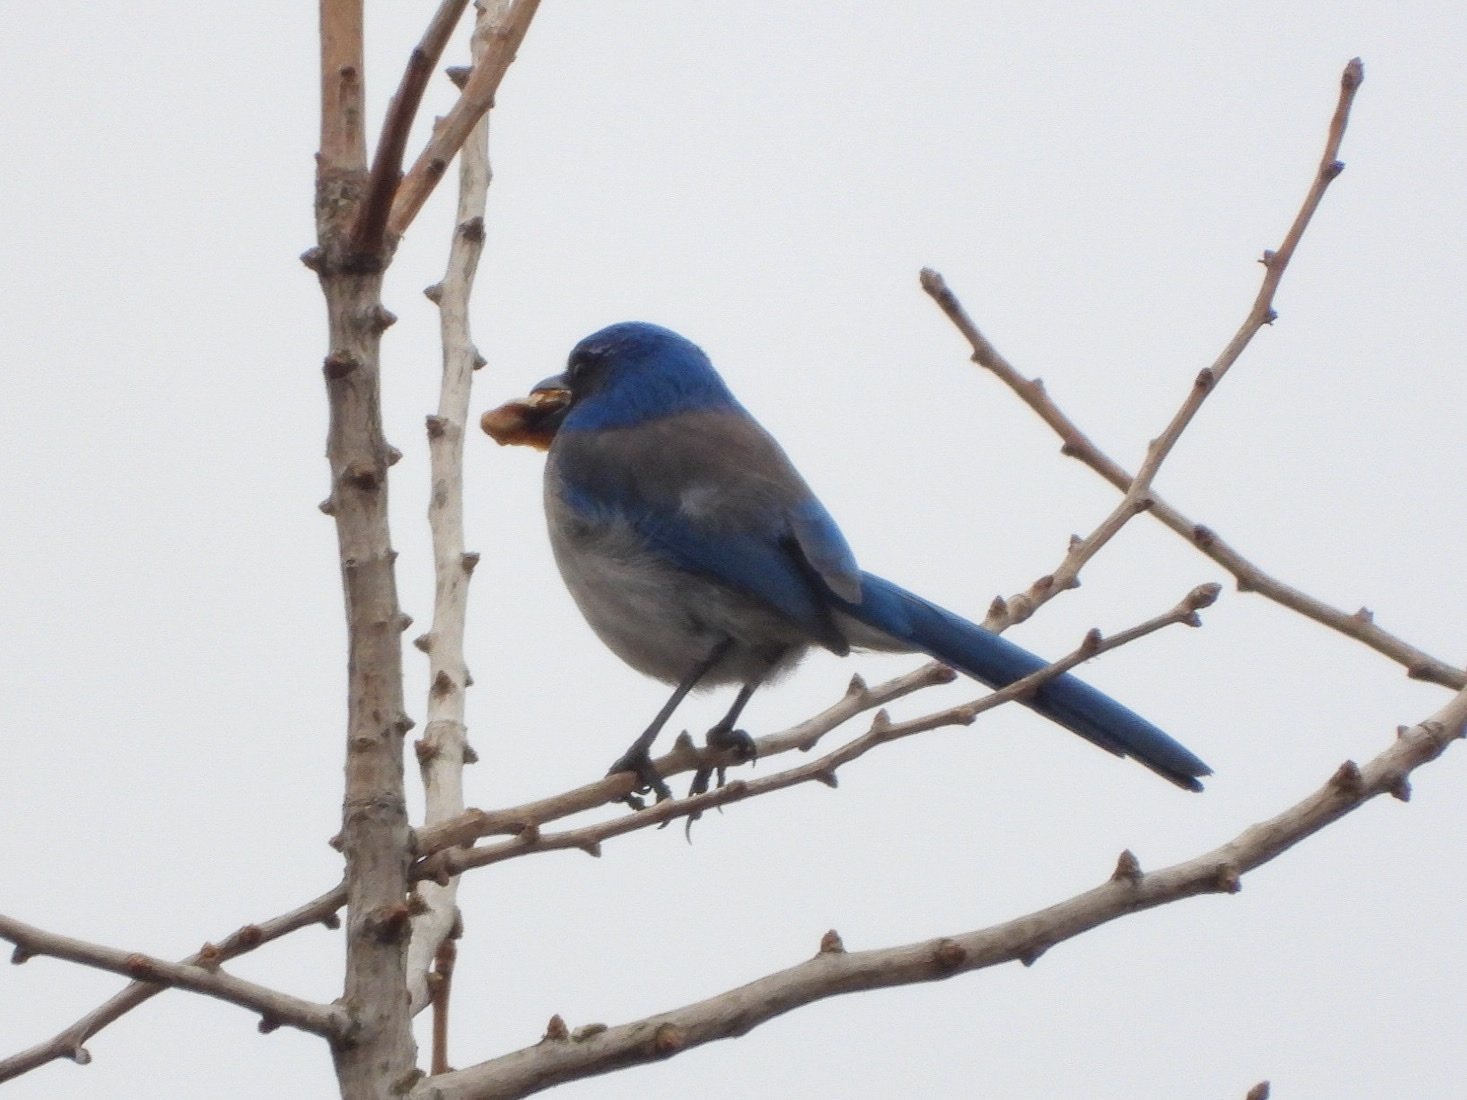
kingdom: Animalia
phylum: Chordata
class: Aves
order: Passeriformes
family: Corvidae
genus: Aphelocoma
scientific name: Aphelocoma californica
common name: California scrub-jay
